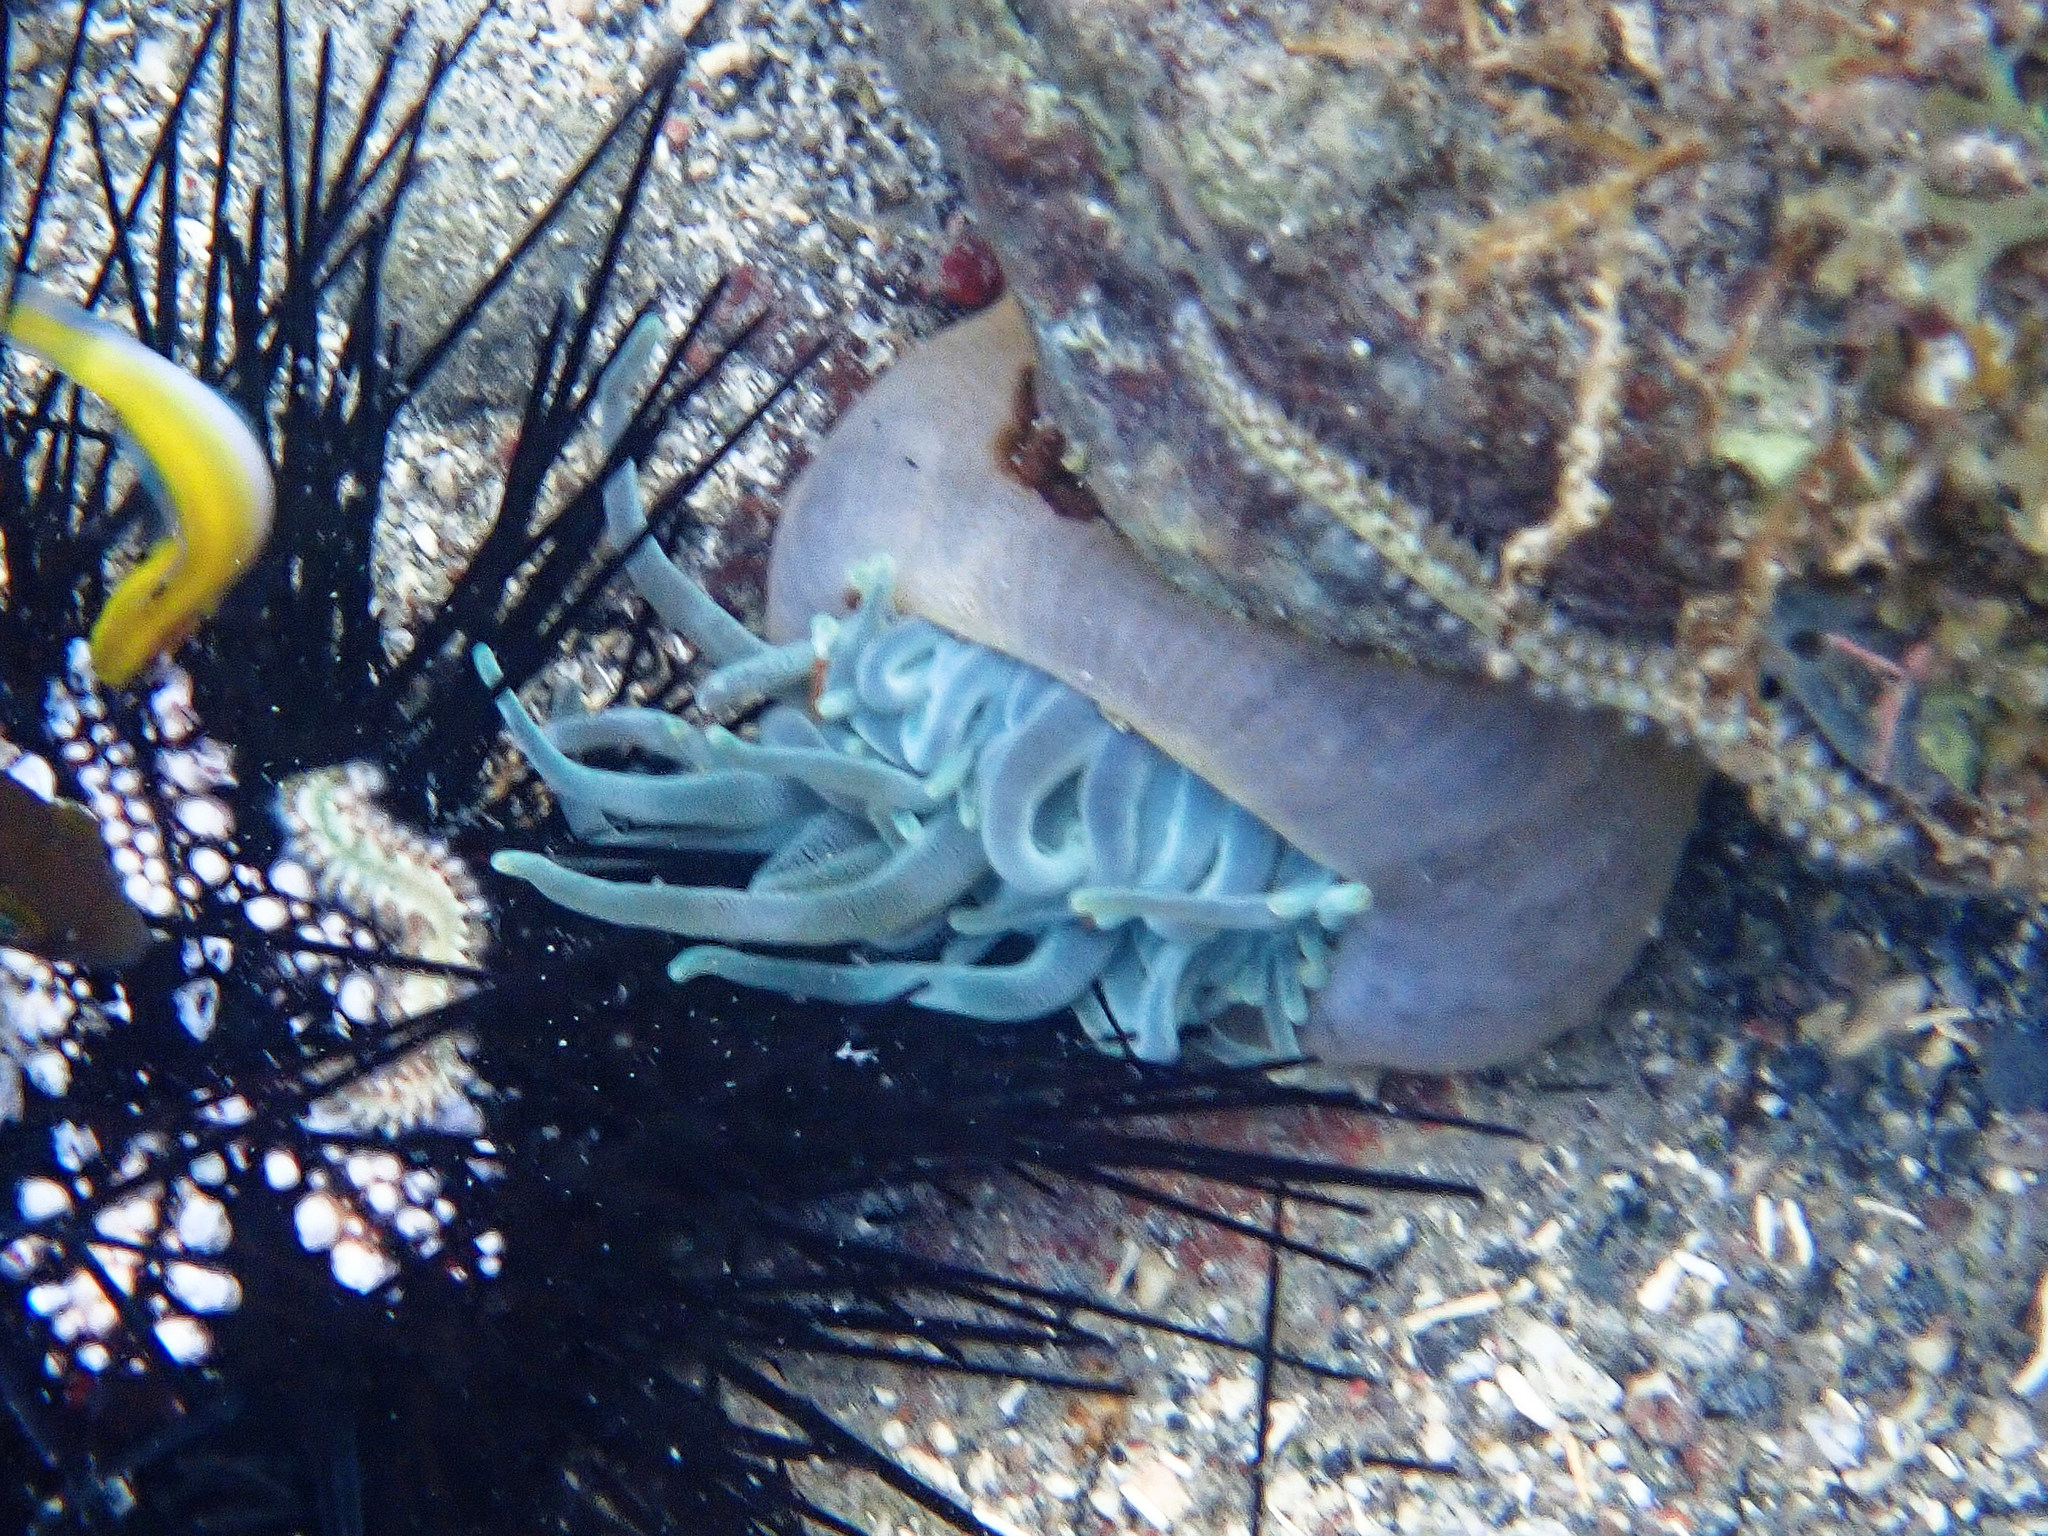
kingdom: Animalia
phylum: Cnidaria
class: Anthozoa
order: Actiniaria
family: Actiniidae
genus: Condylactis
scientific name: Condylactis gigantea
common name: Giant caribbean anemone
